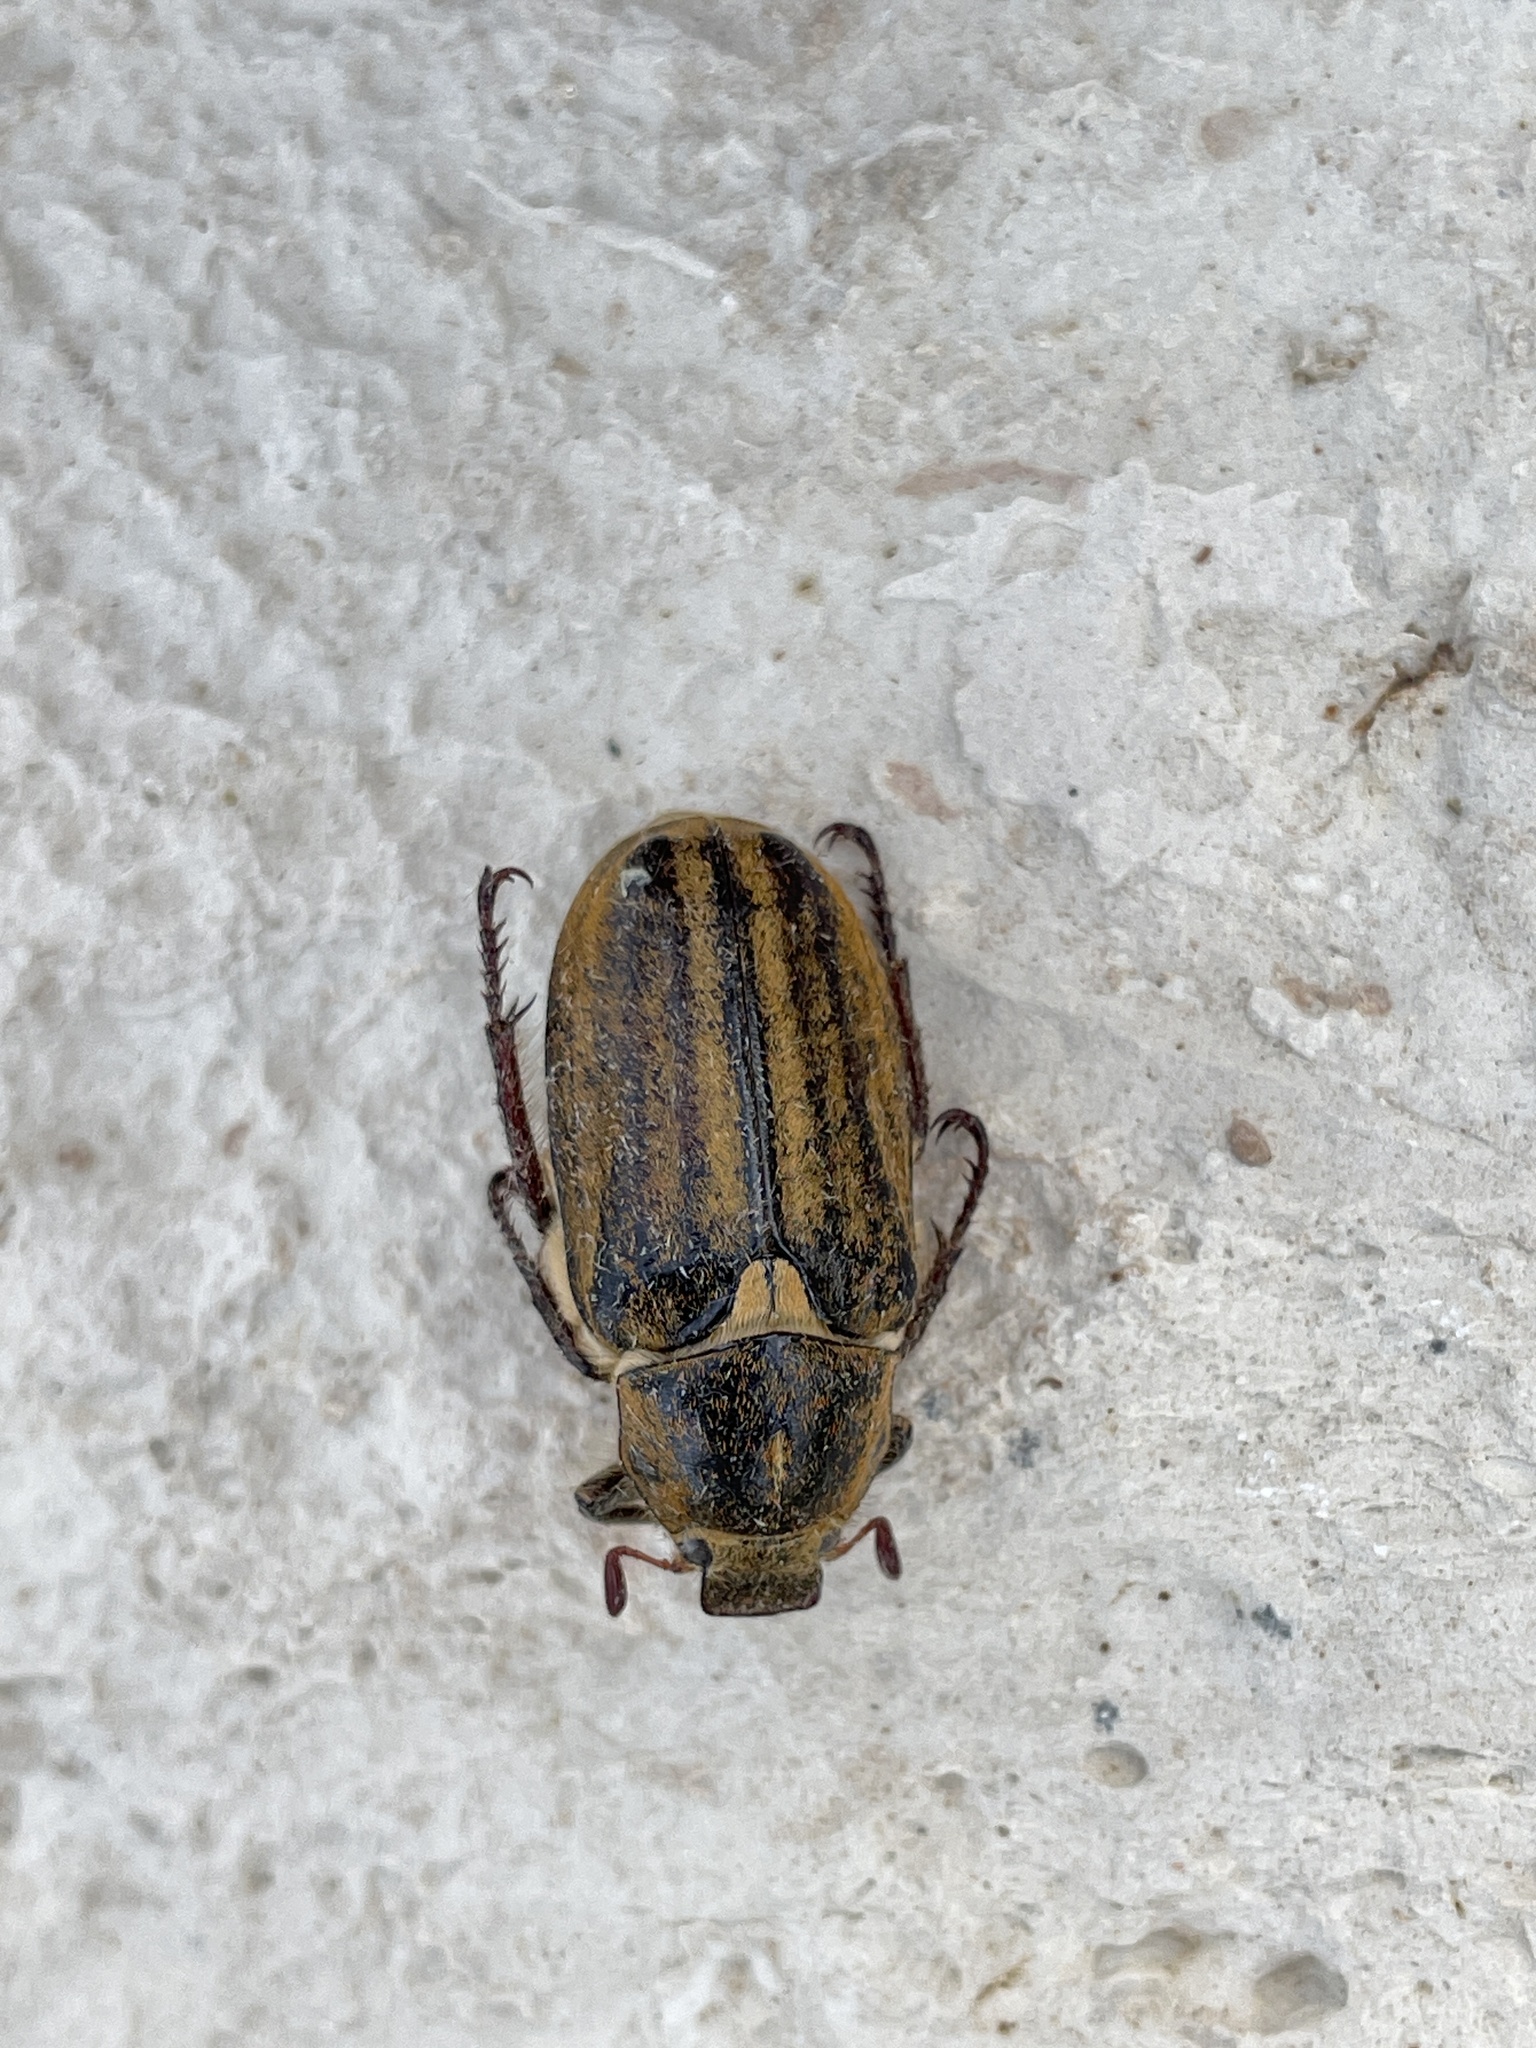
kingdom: Animalia
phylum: Arthropoda
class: Insecta
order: Coleoptera
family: Scarabaeidae
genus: Anoxia
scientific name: Anoxia matutinalis
